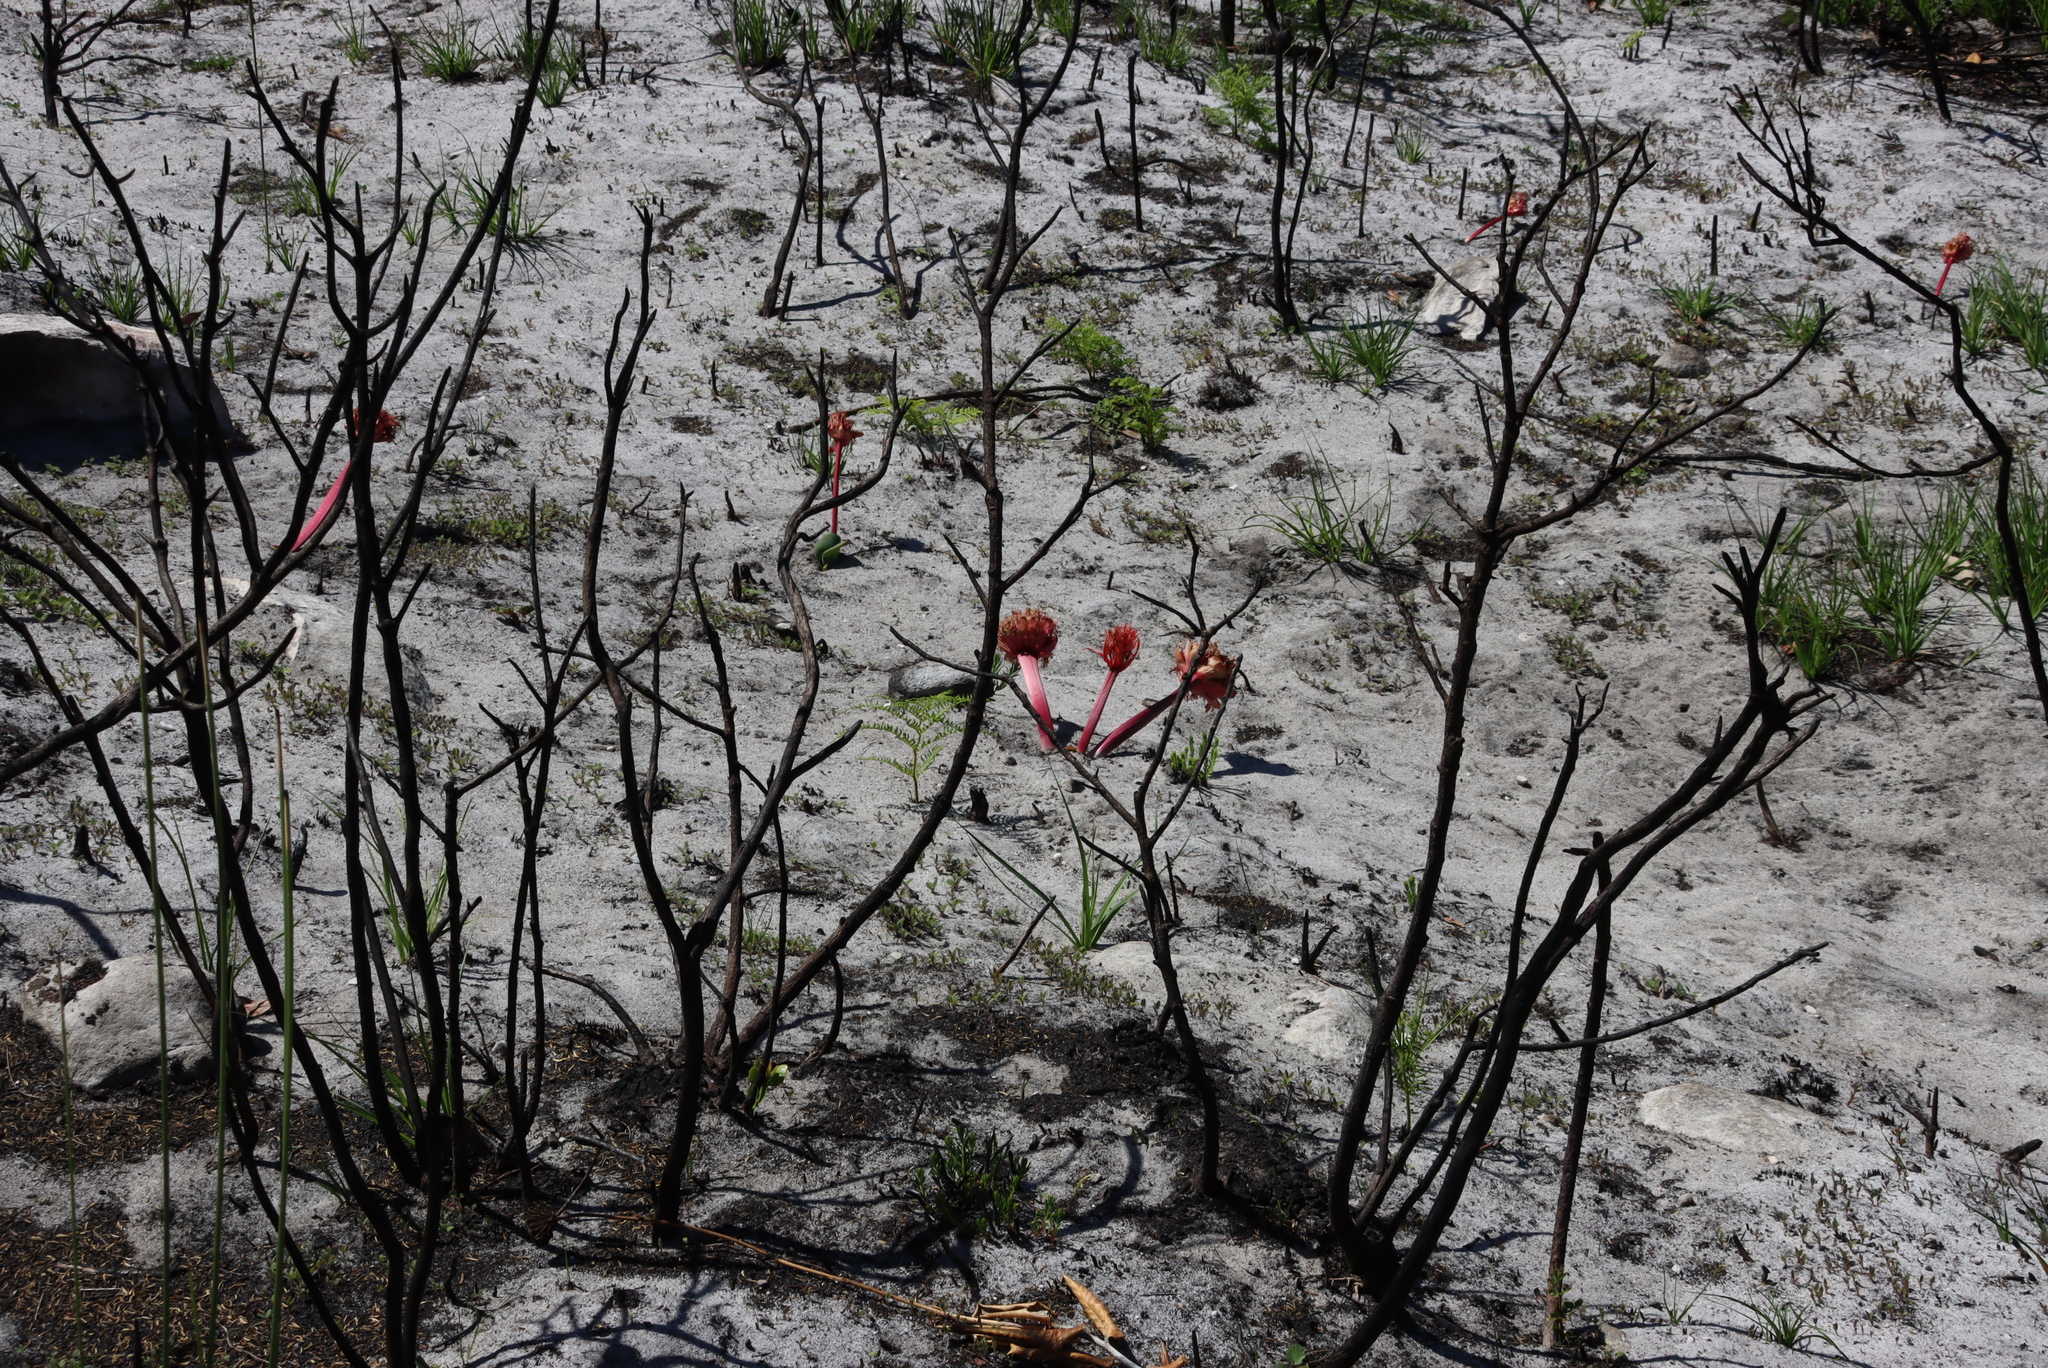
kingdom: Plantae
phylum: Tracheophyta
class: Liliopsida
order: Asparagales
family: Amaryllidaceae
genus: Haemanthus
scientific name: Haemanthus sanguineus
